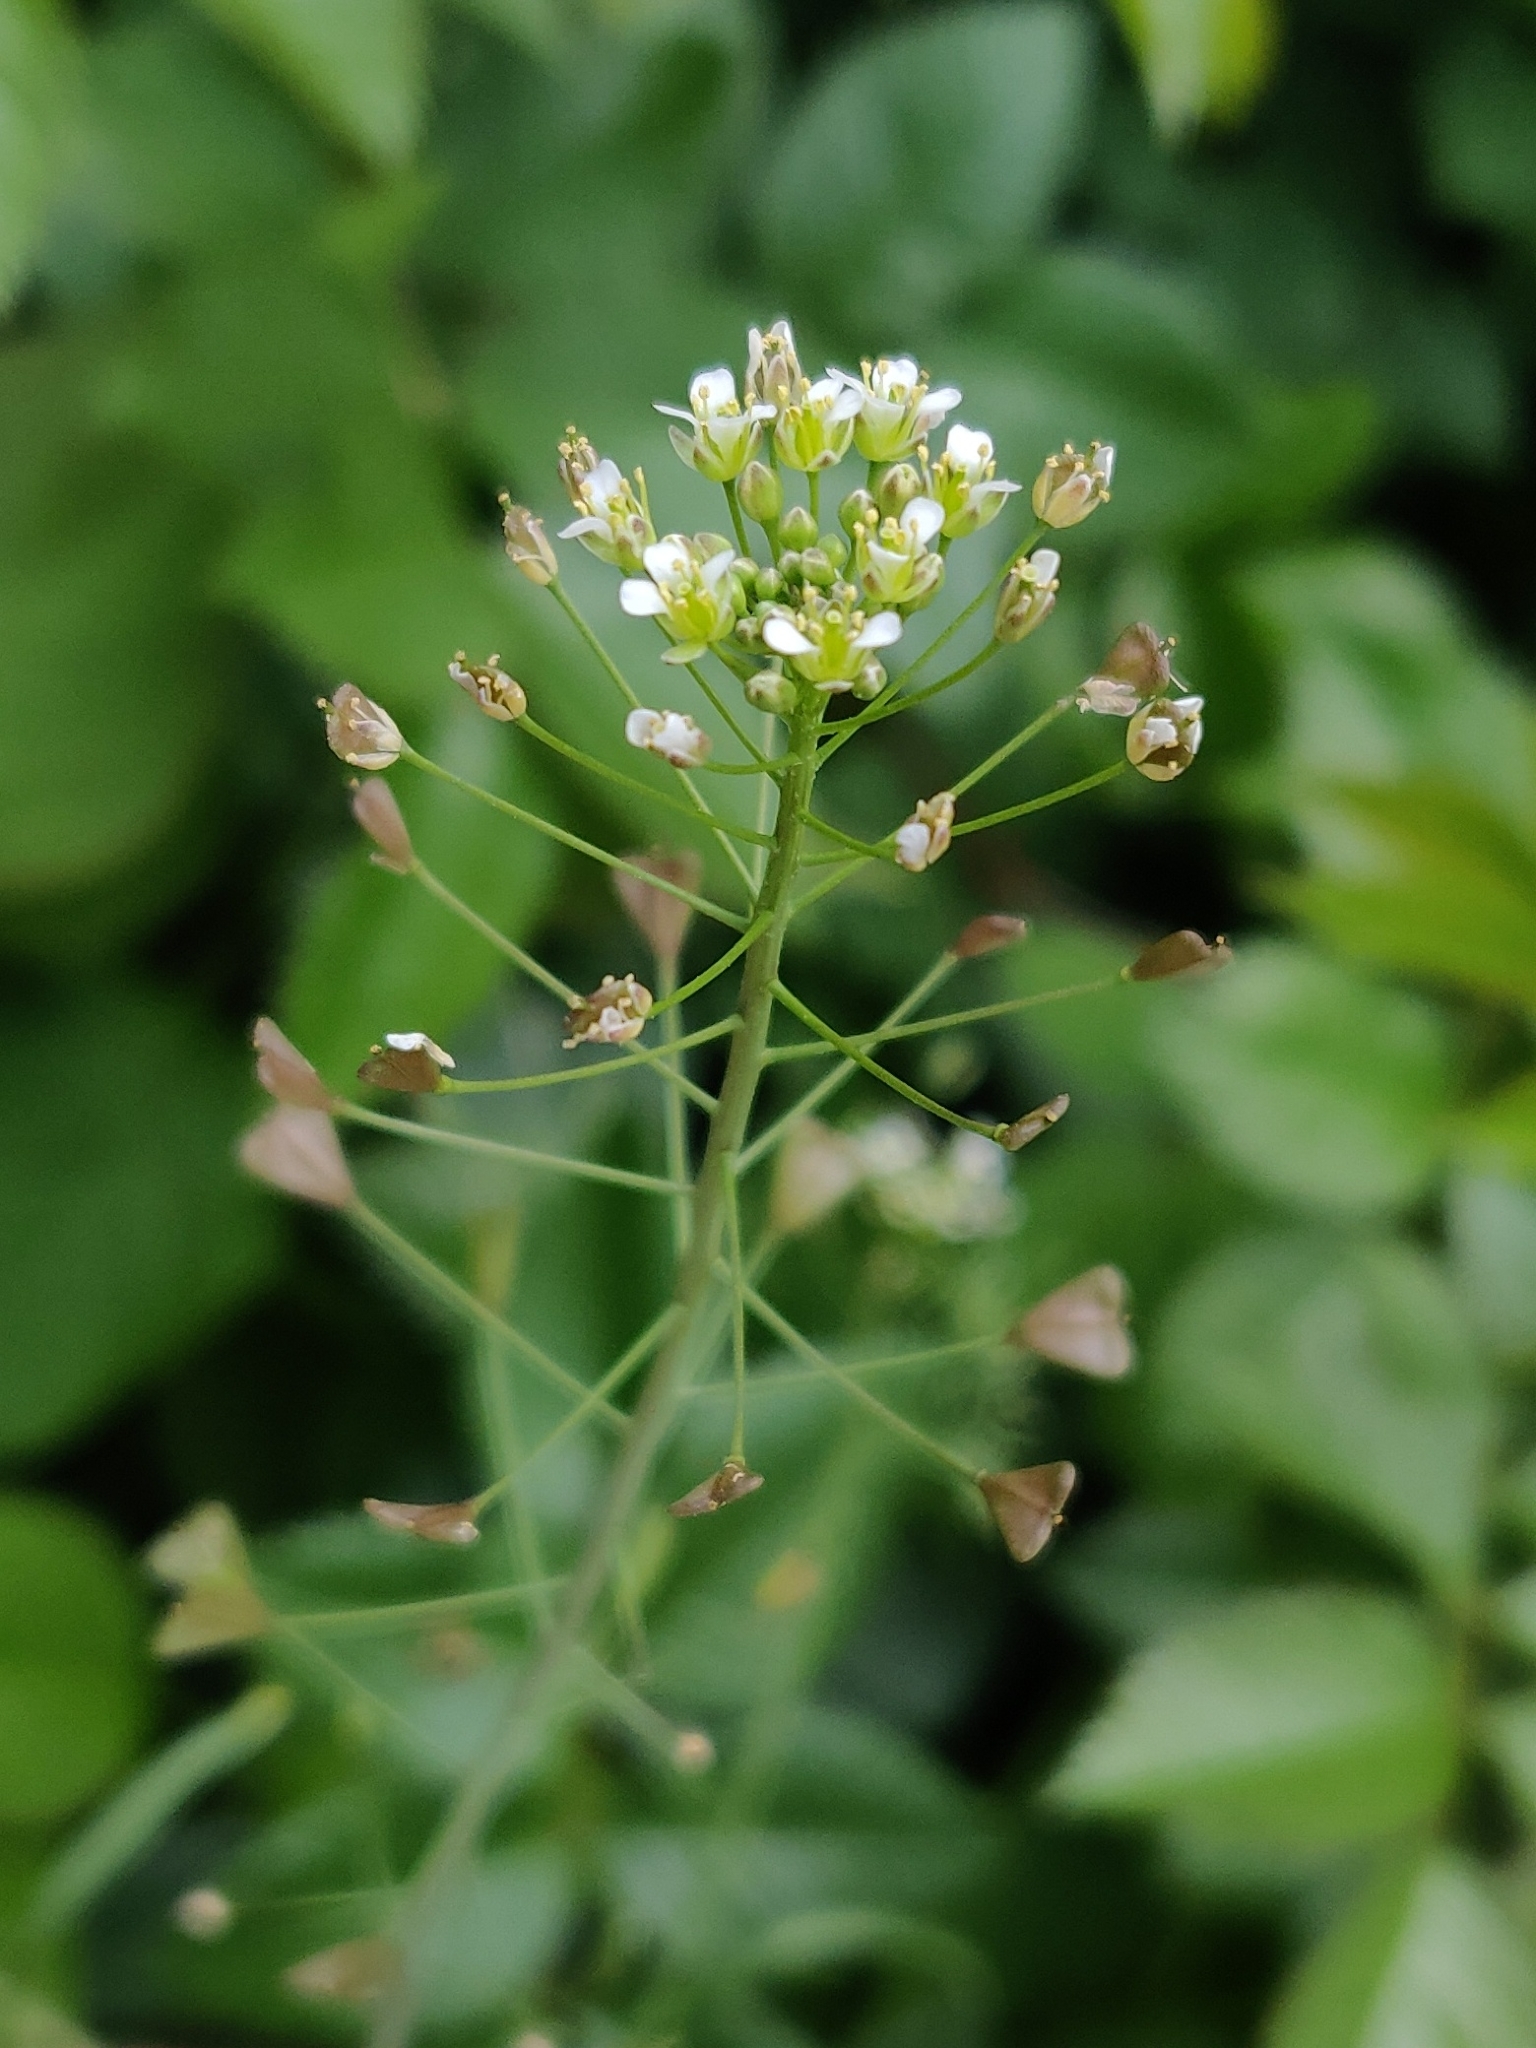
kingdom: Plantae
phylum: Tracheophyta
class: Magnoliopsida
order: Brassicales
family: Brassicaceae
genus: Capsella
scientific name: Capsella bursa-pastoris
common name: Shepherd's purse
